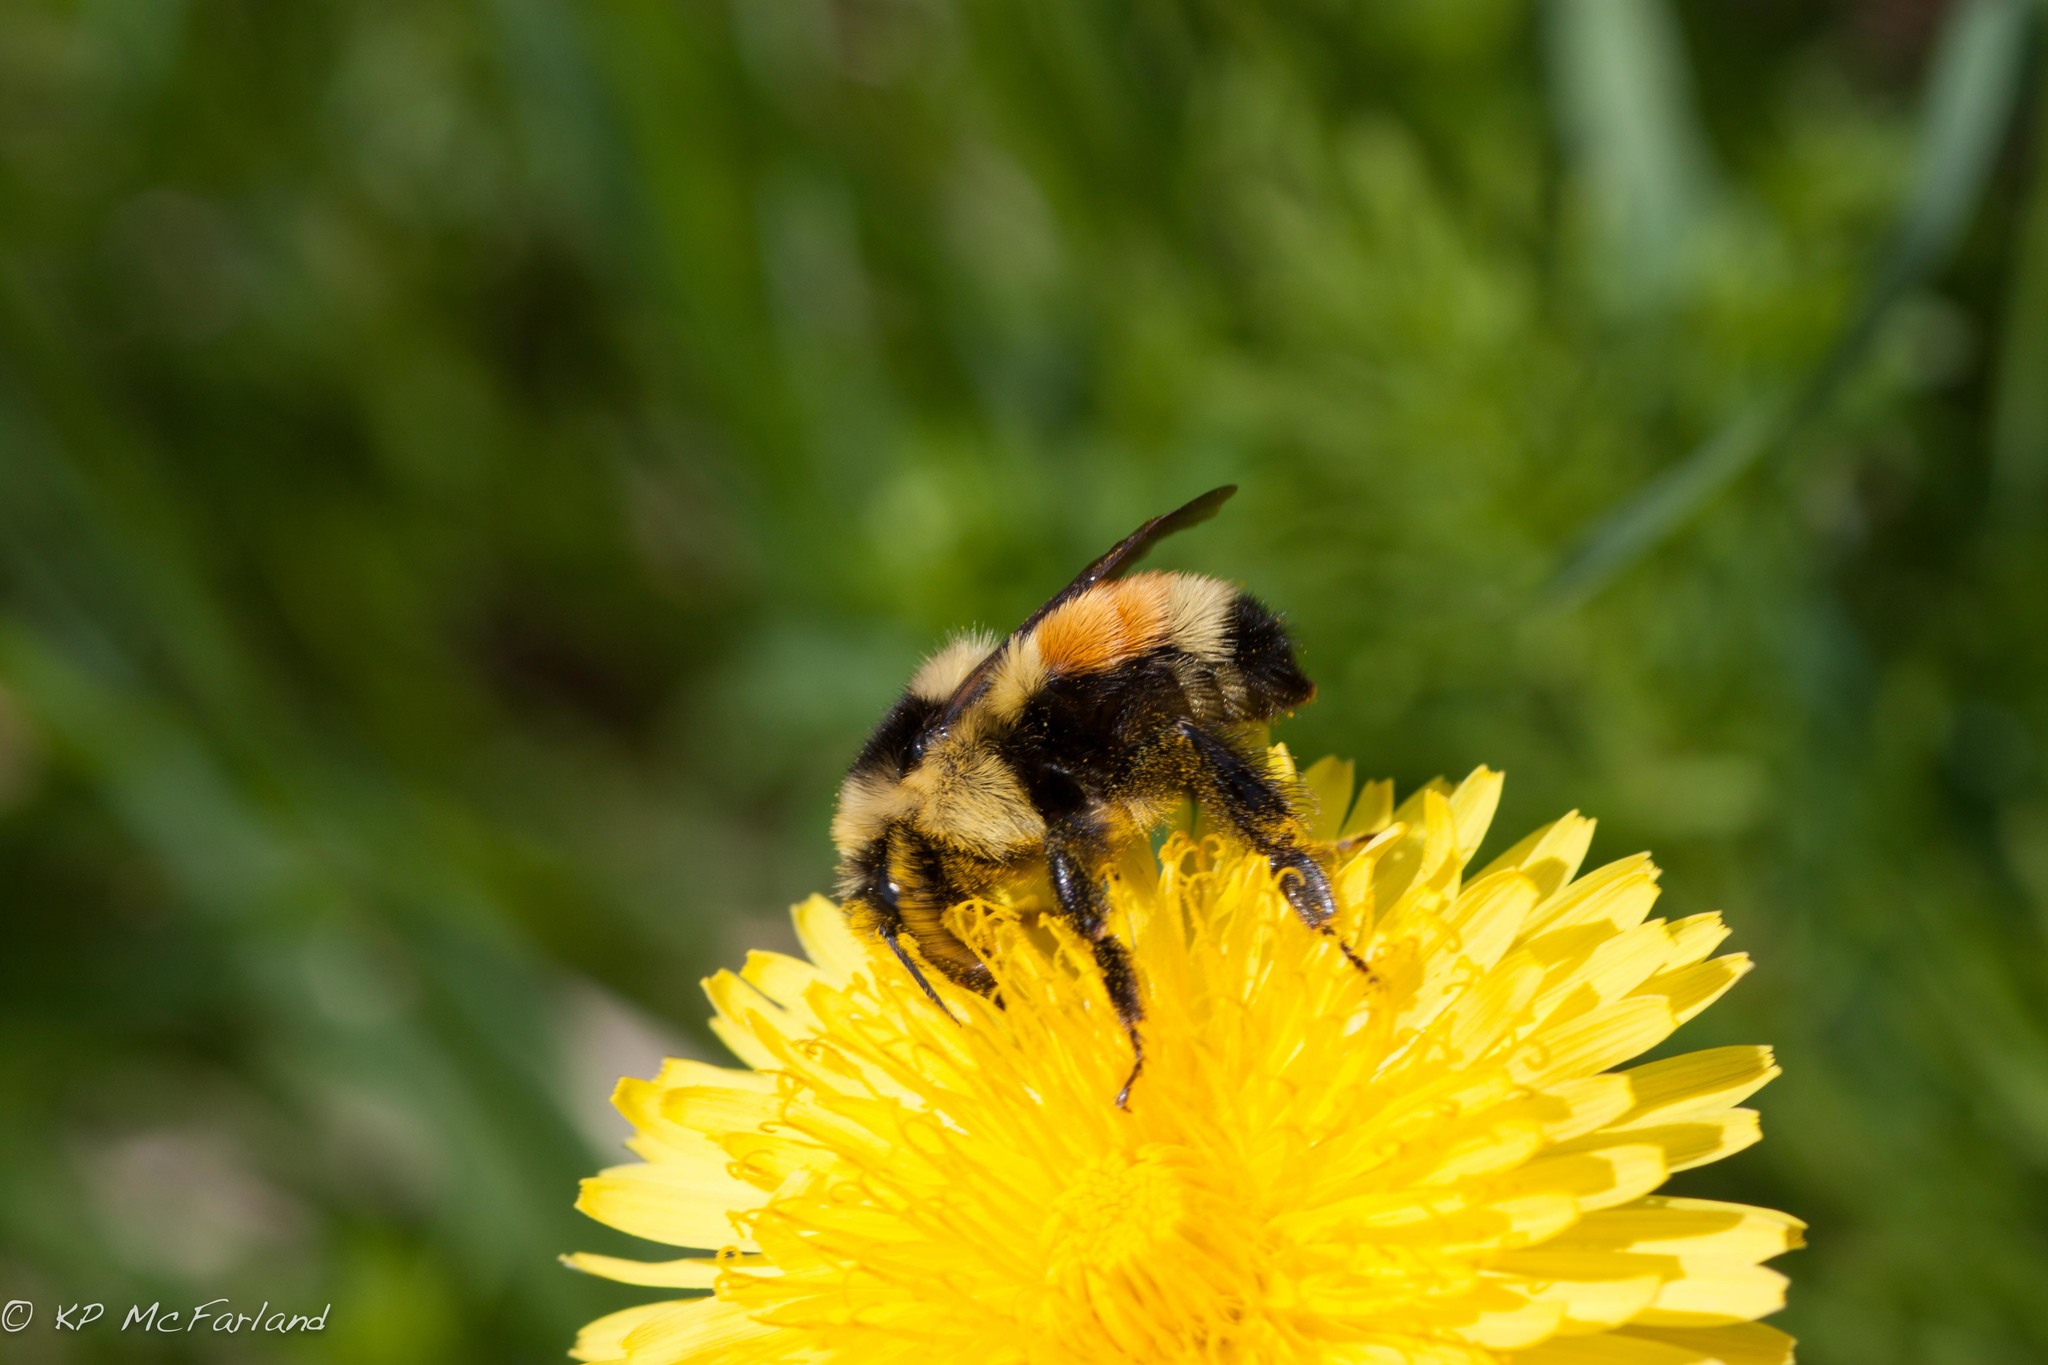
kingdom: Animalia
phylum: Arthropoda
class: Insecta
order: Hymenoptera
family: Apidae
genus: Bombus
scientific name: Bombus ternarius
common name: Tri-colored bumble bee
